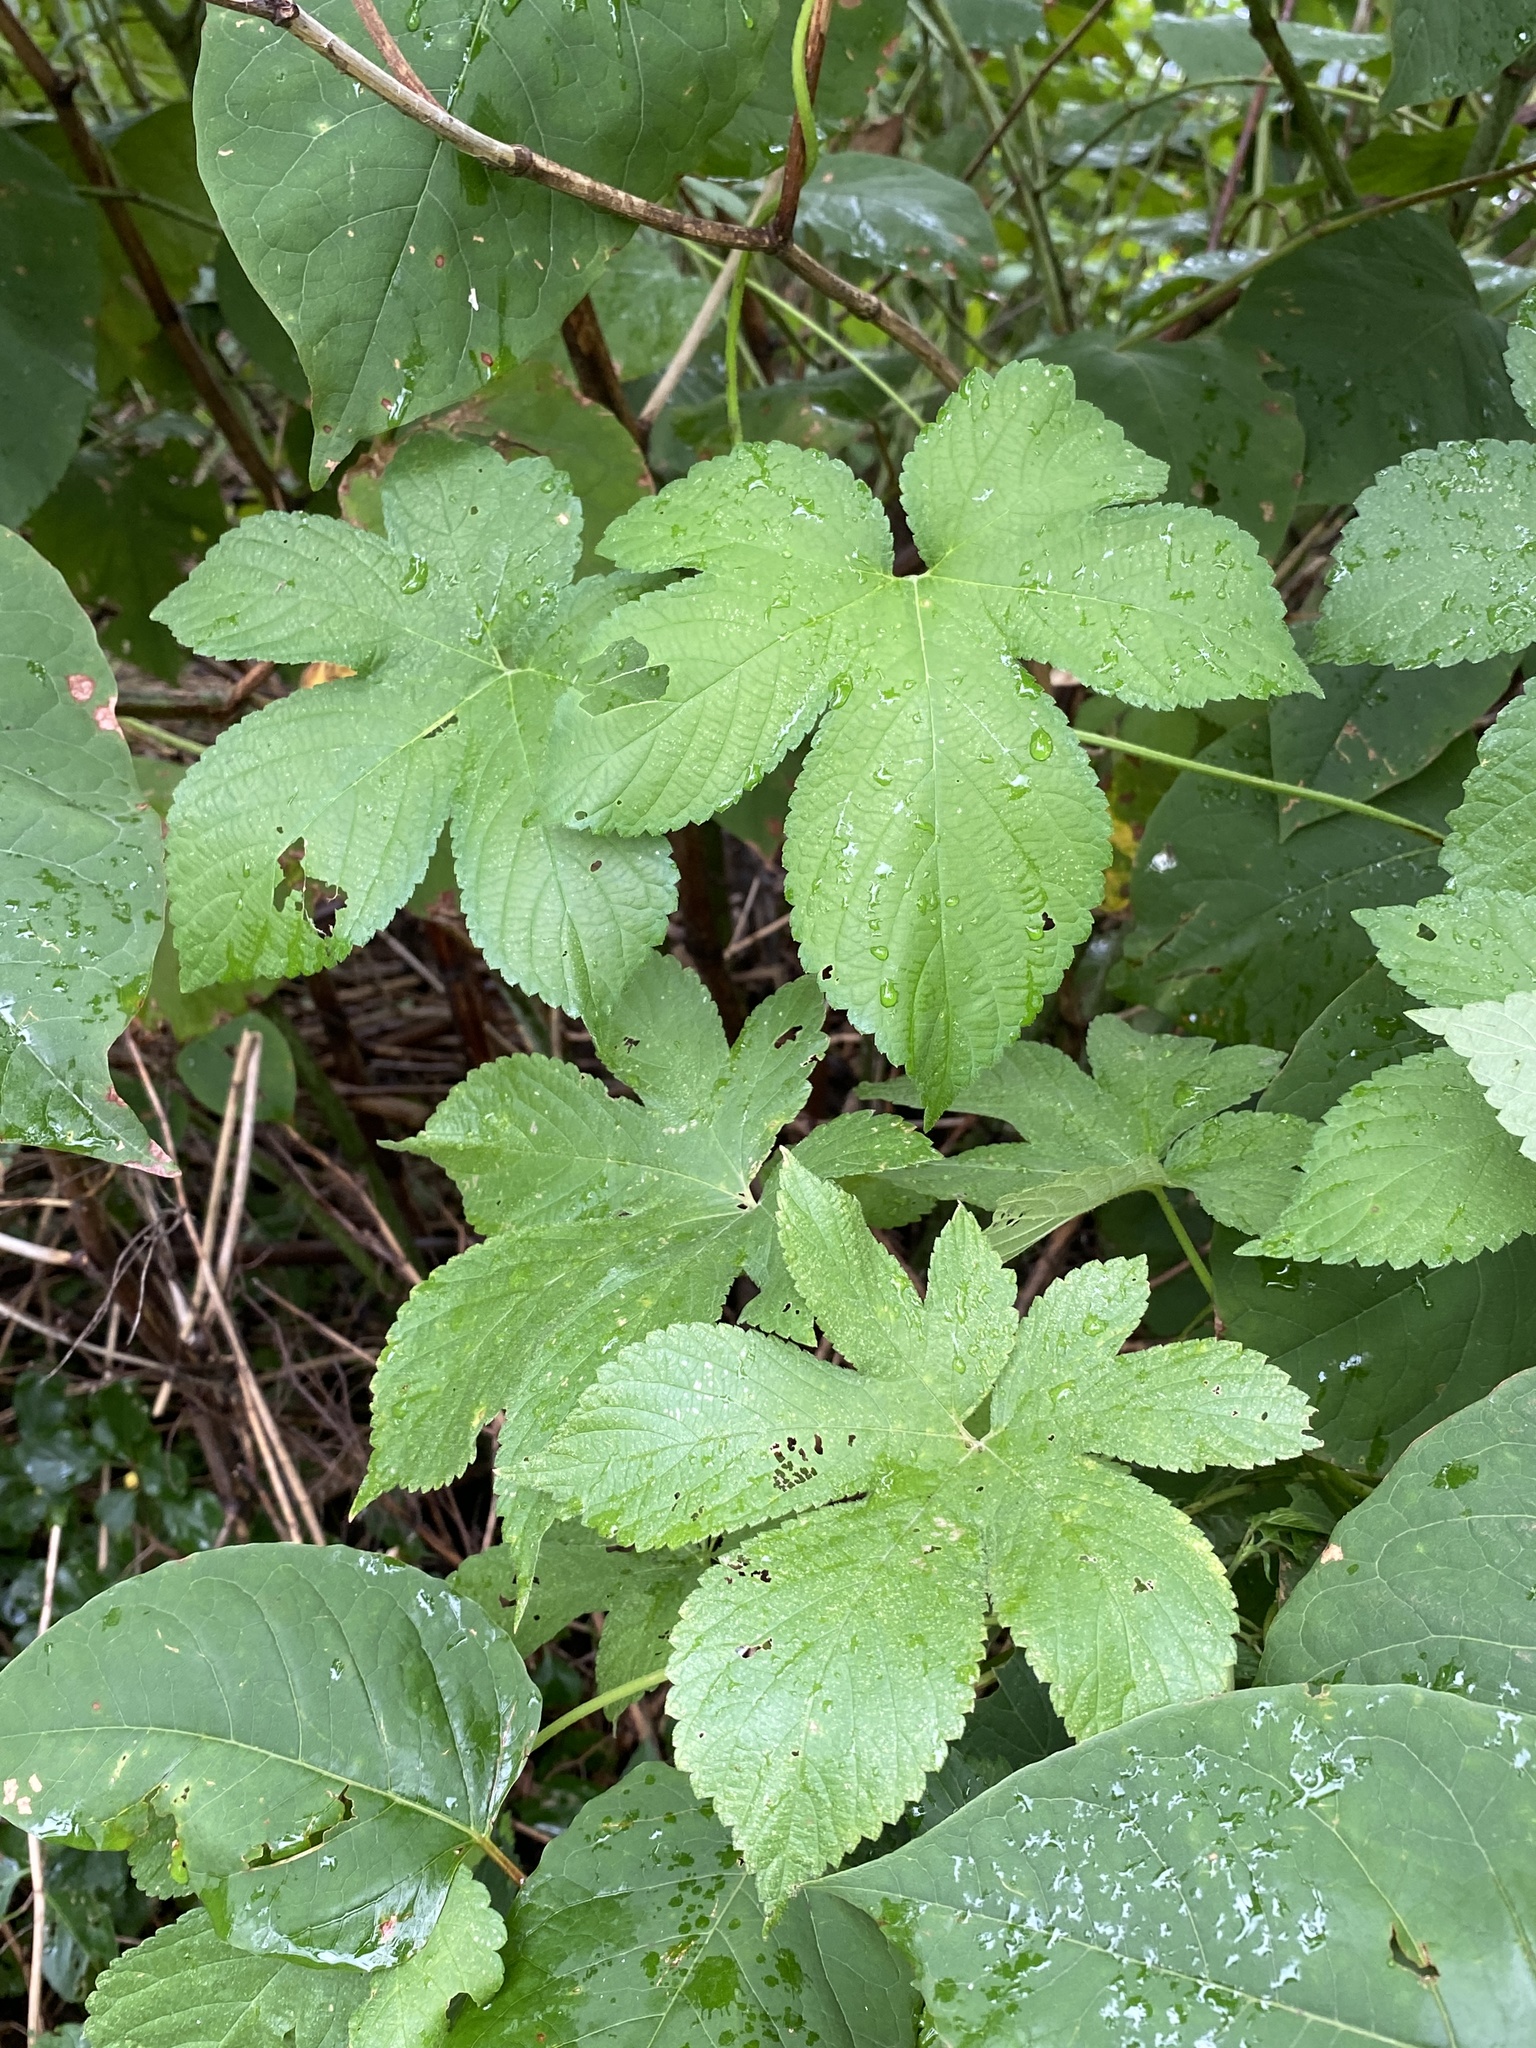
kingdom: Plantae
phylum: Tracheophyta
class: Magnoliopsida
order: Rosales
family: Cannabaceae
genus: Humulus
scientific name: Humulus scandens
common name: Japanese hop
